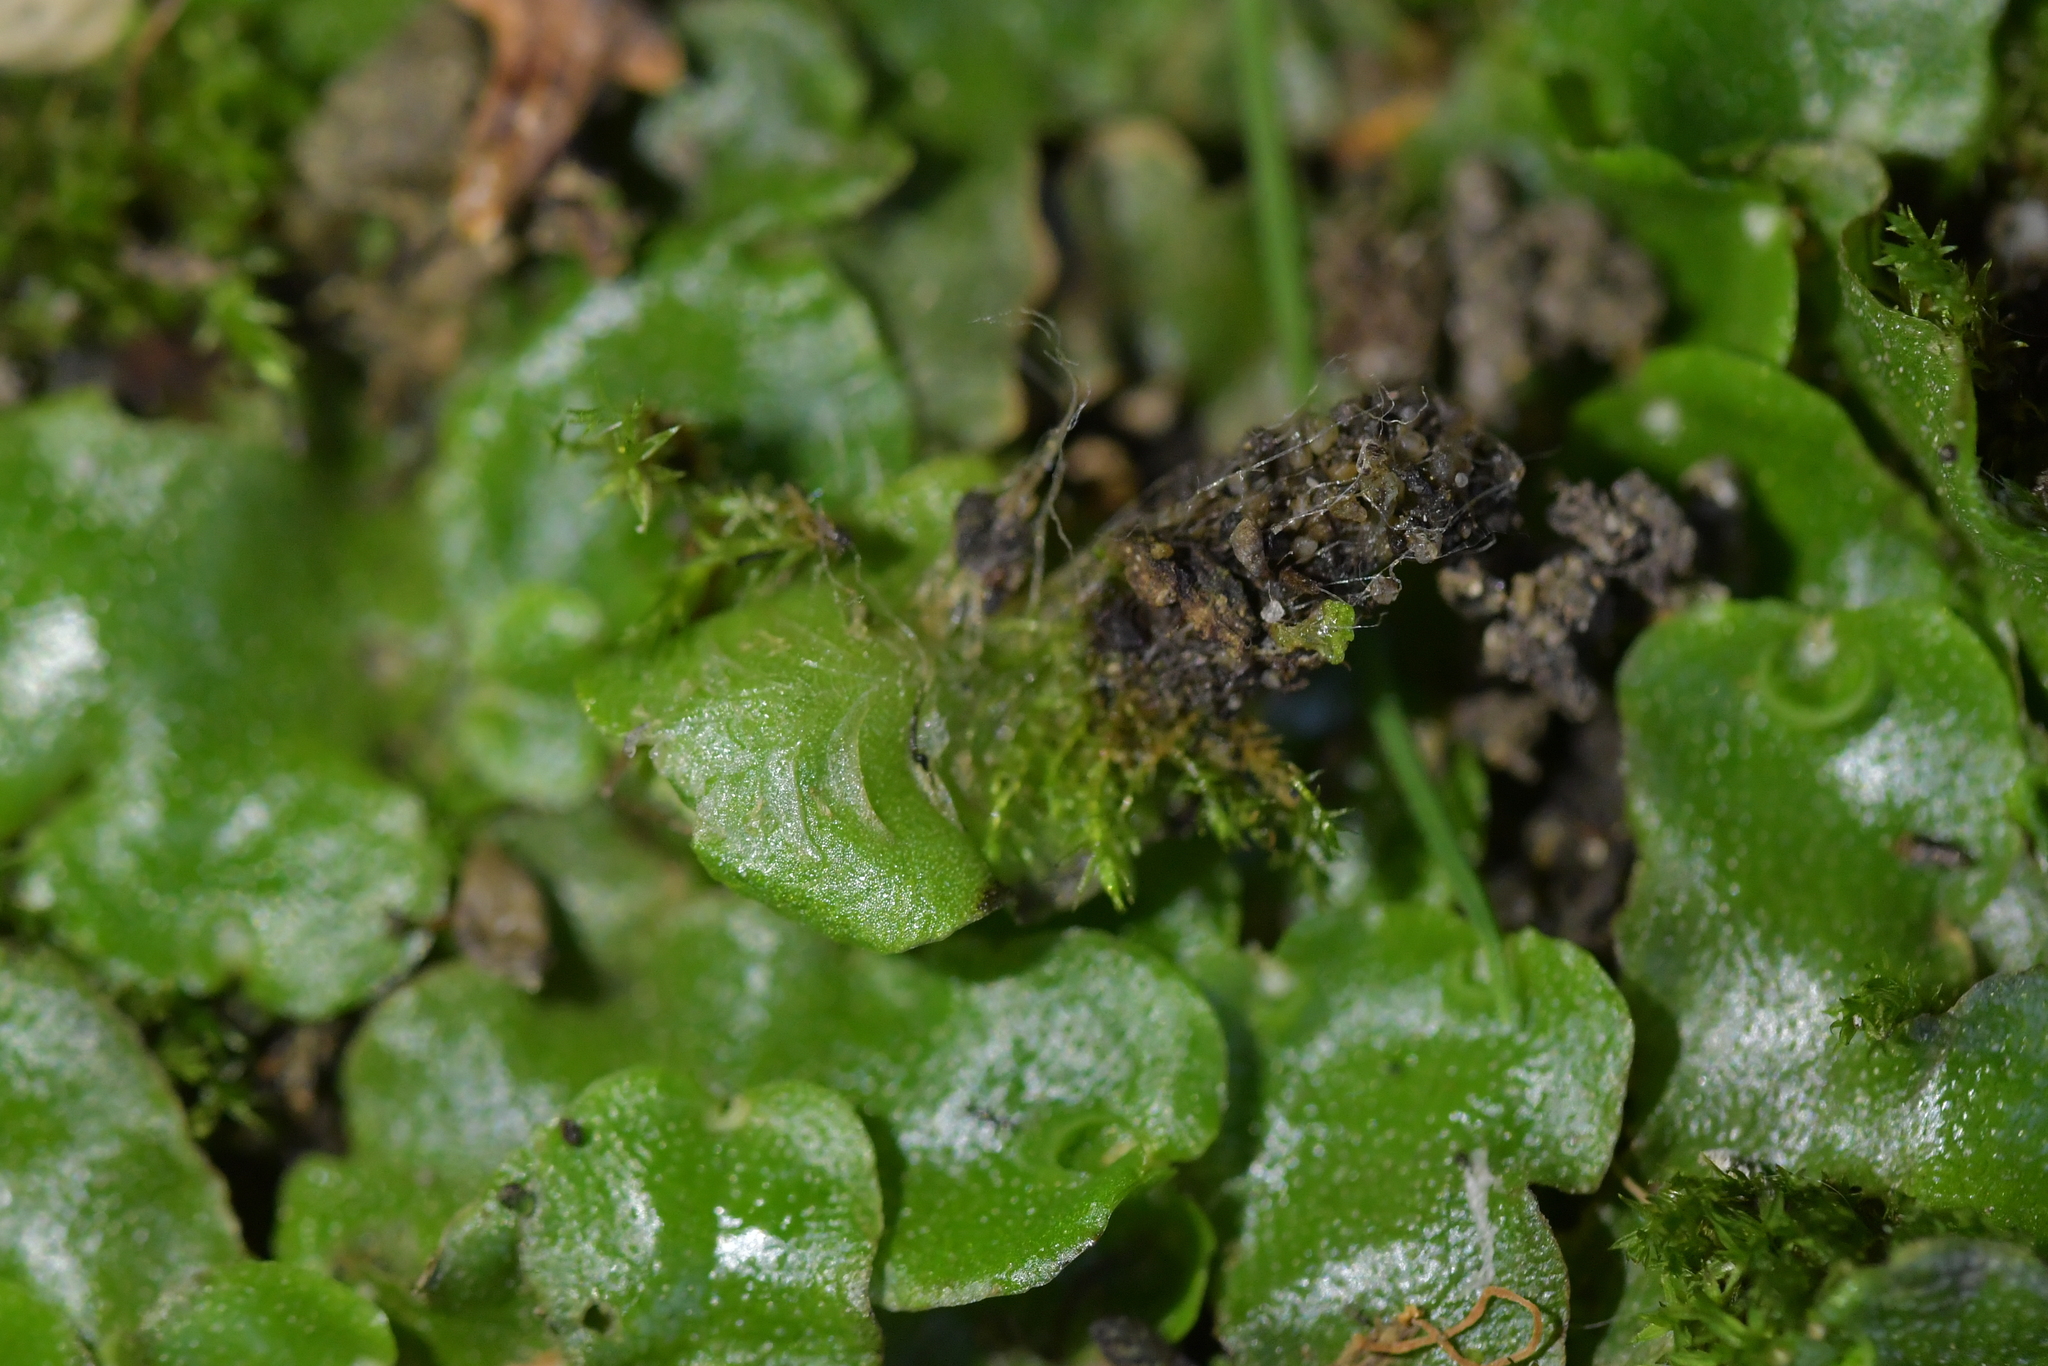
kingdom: Plantae
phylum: Marchantiophyta
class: Marchantiopsida
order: Lunulariales
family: Lunulariaceae
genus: Lunularia
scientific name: Lunularia cruciata
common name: Crescent-cup liverwort
